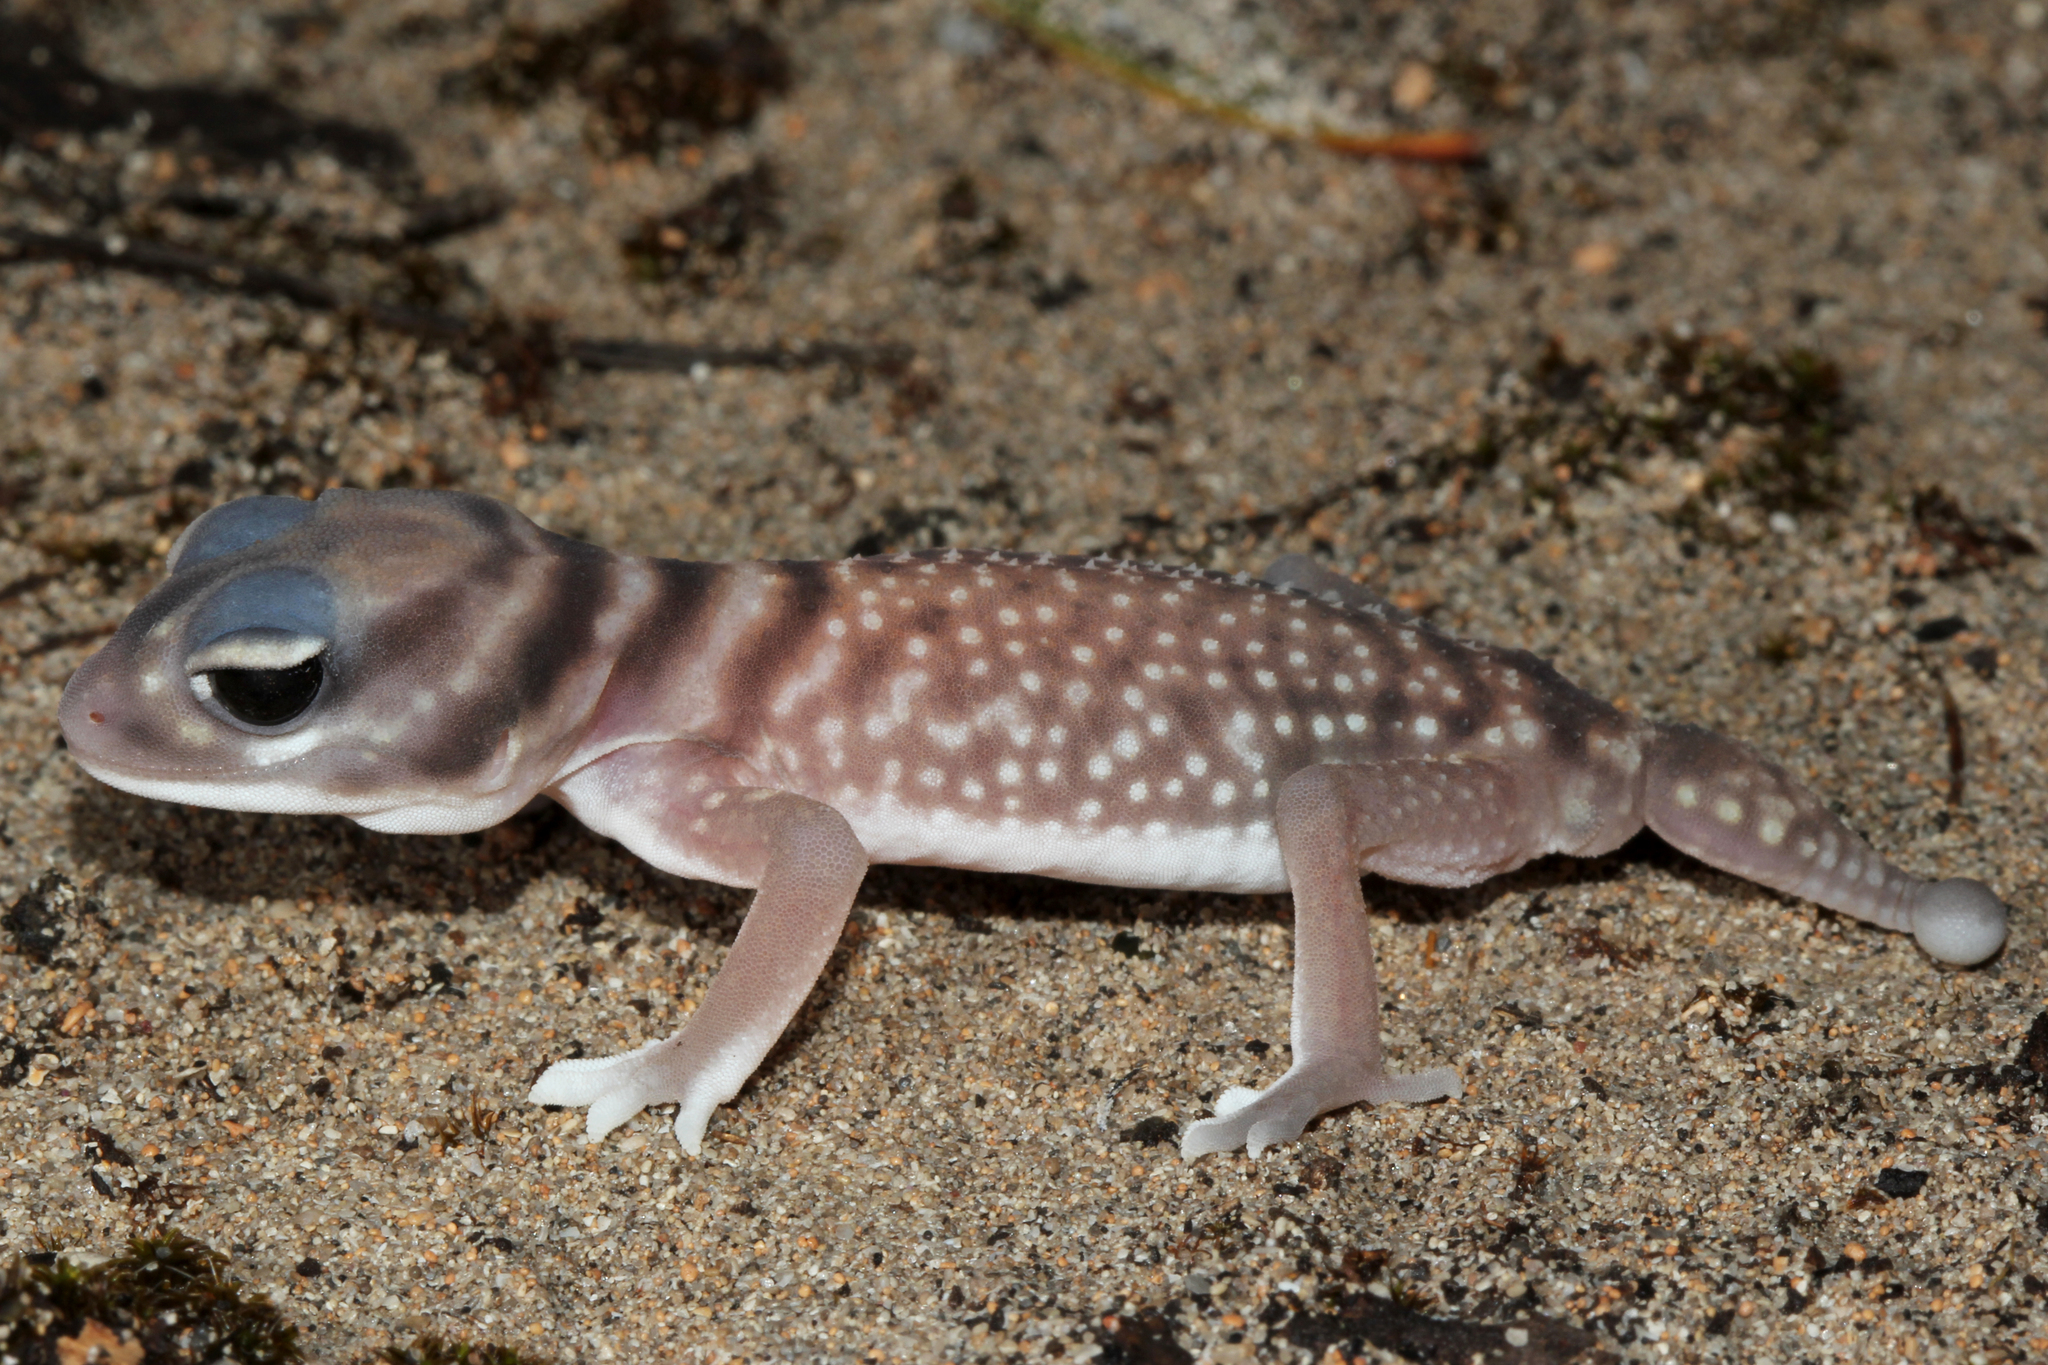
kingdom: Animalia
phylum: Chordata
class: Squamata
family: Carphodactylidae
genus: Nephrurus
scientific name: Nephrurus stellatus
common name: Southern knob-tailed gecko
